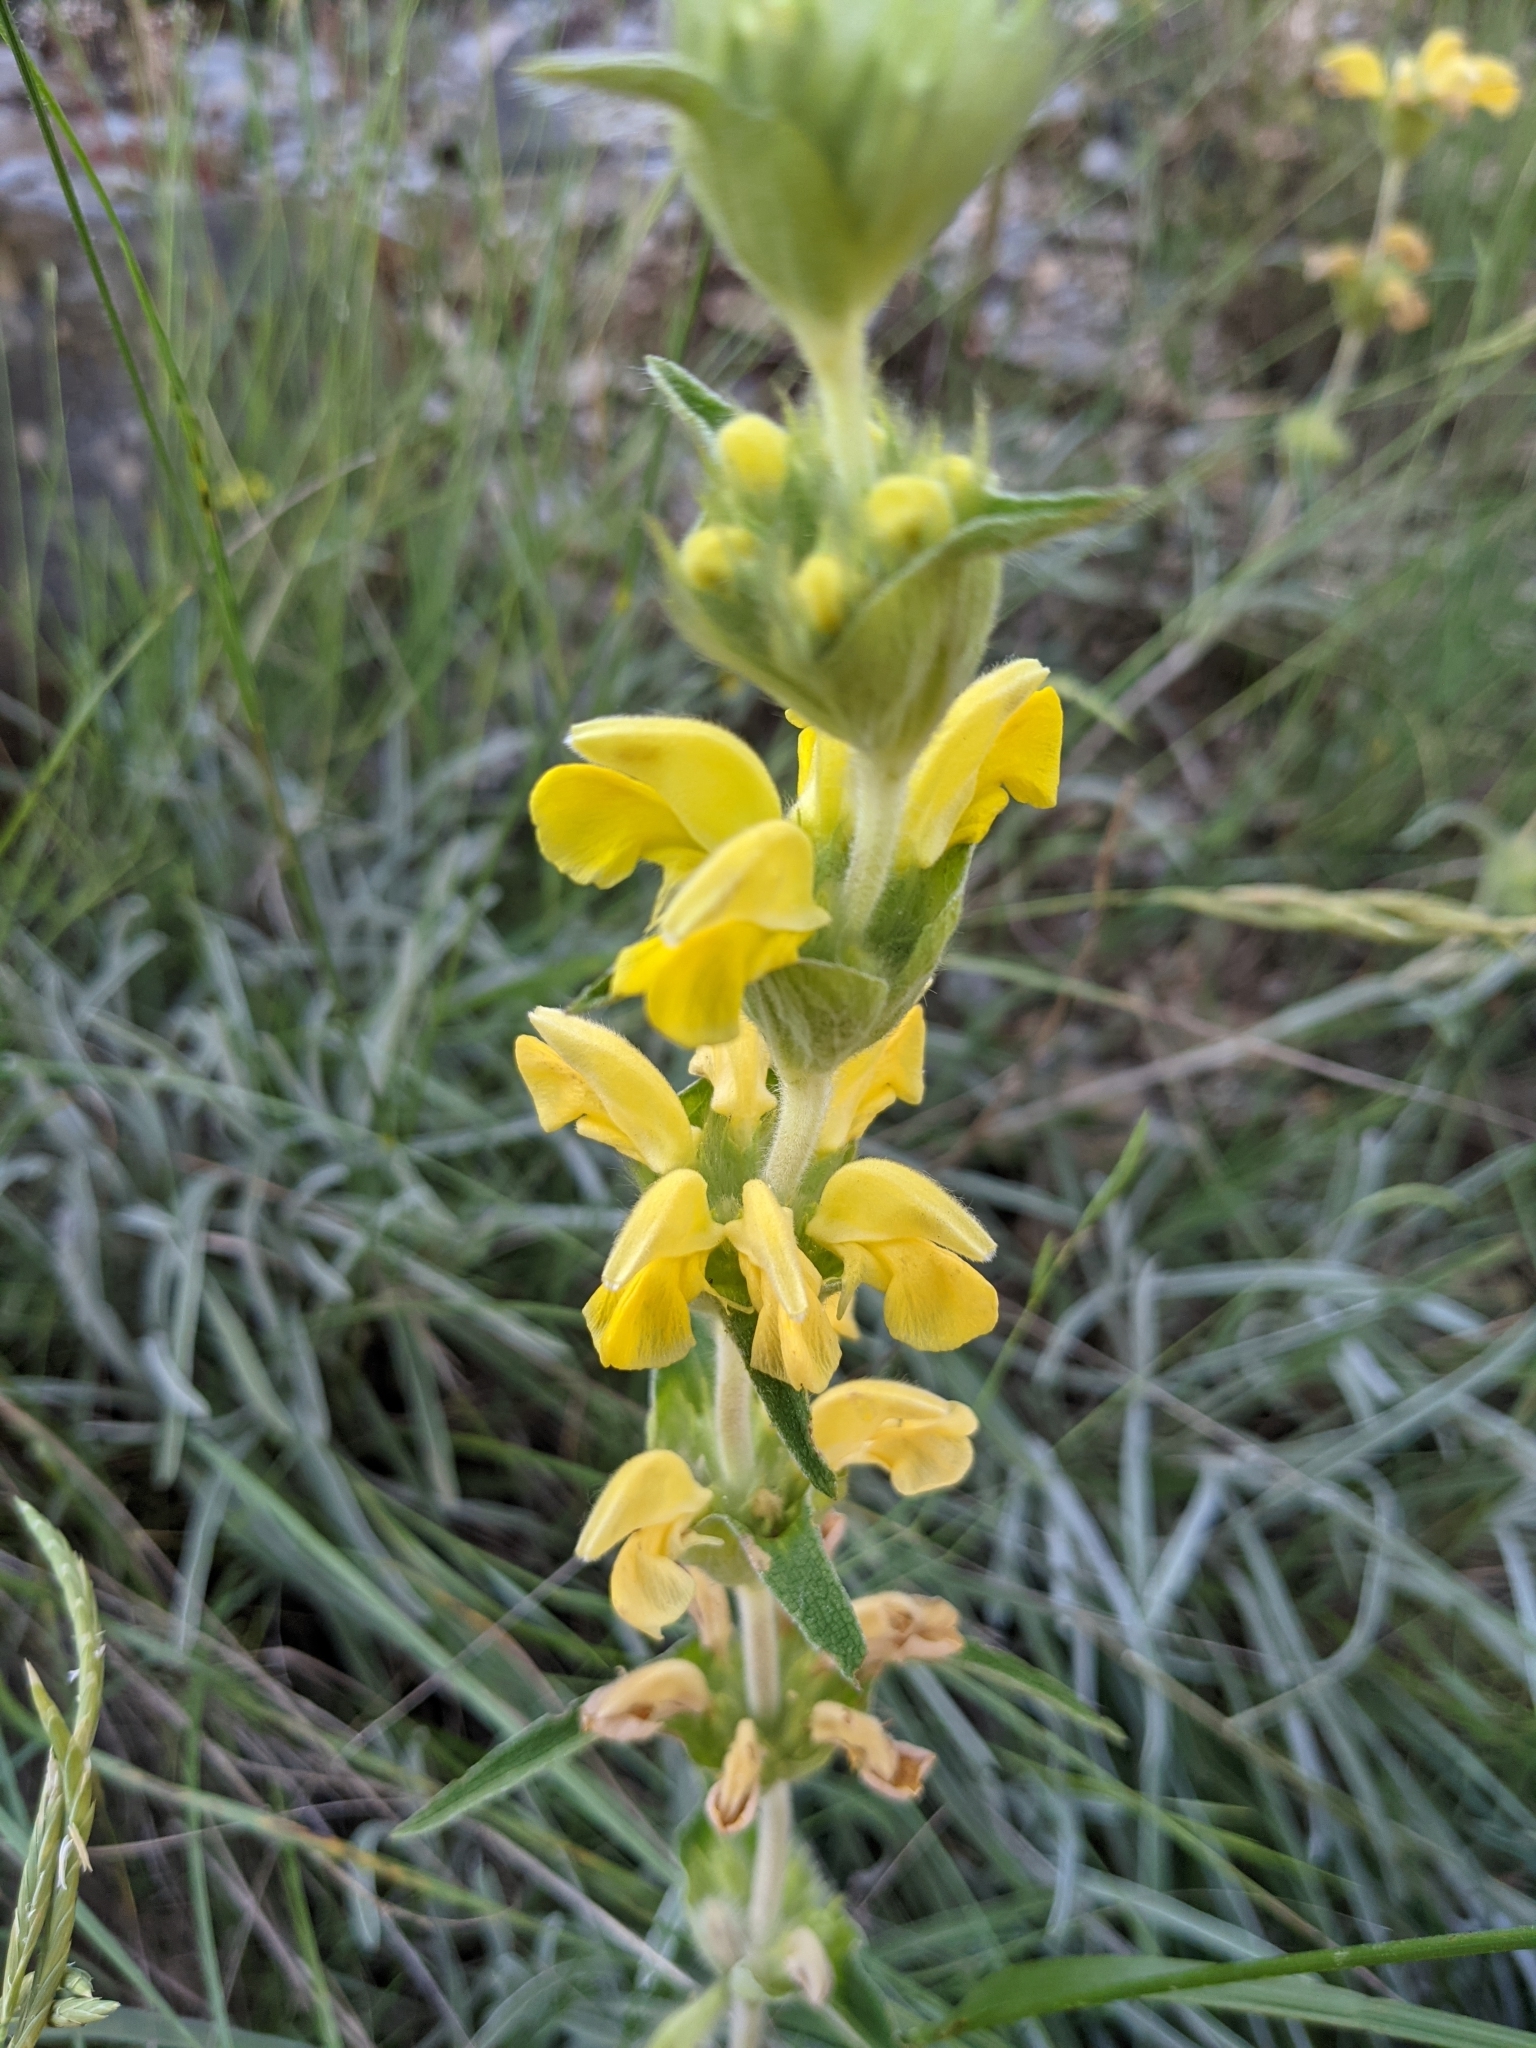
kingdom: Plantae
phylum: Tracheophyta
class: Magnoliopsida
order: Lamiales
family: Lamiaceae
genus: Phlomis
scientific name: Phlomis lychnitis
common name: Lampwickplant
